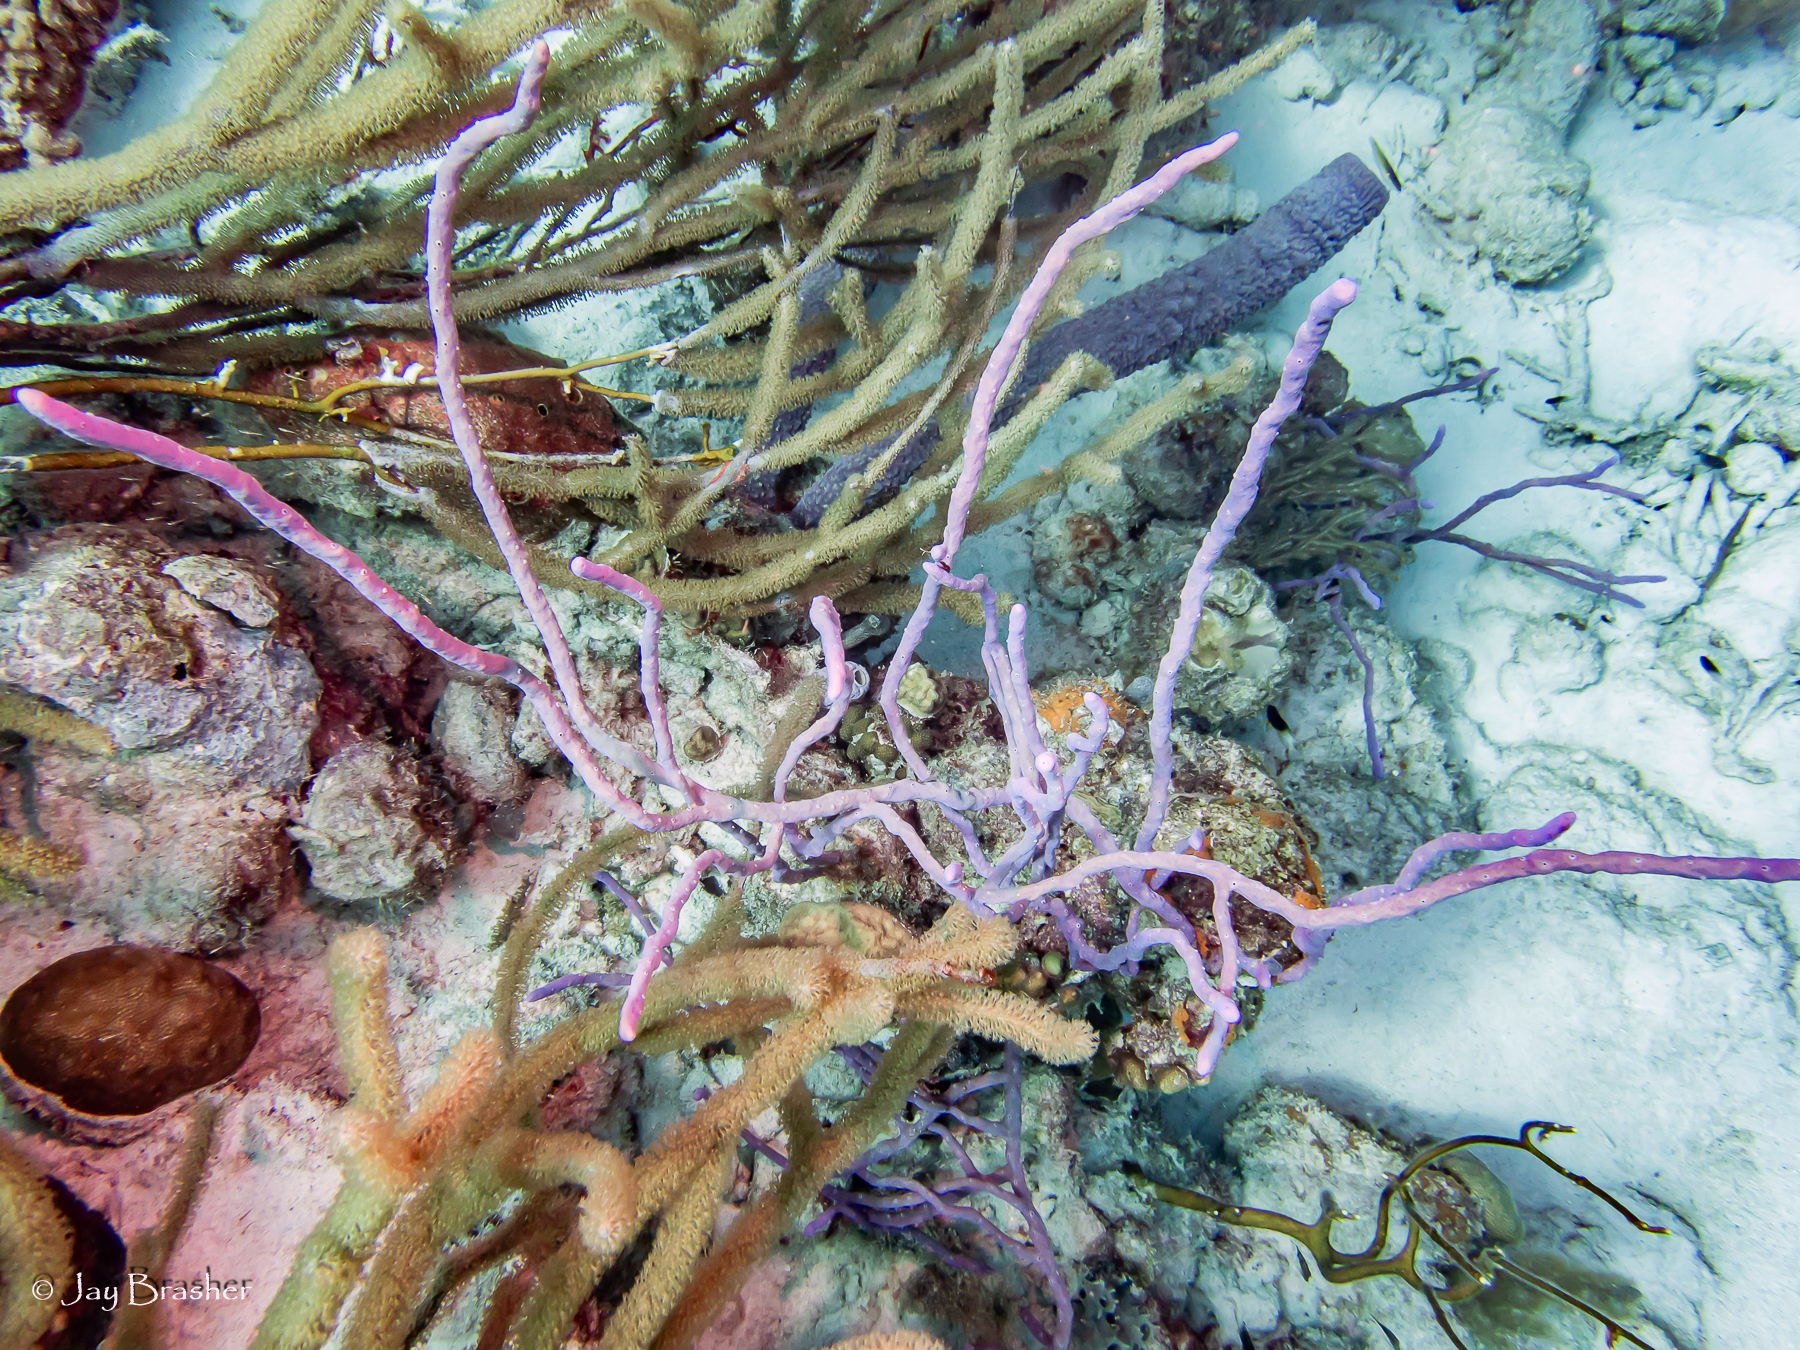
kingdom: Animalia
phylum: Porifera
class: Demospongiae
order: Verongiida
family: Aplysinidae
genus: Aplysina
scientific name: Aplysina cauliformis
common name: Branching candle sponge
